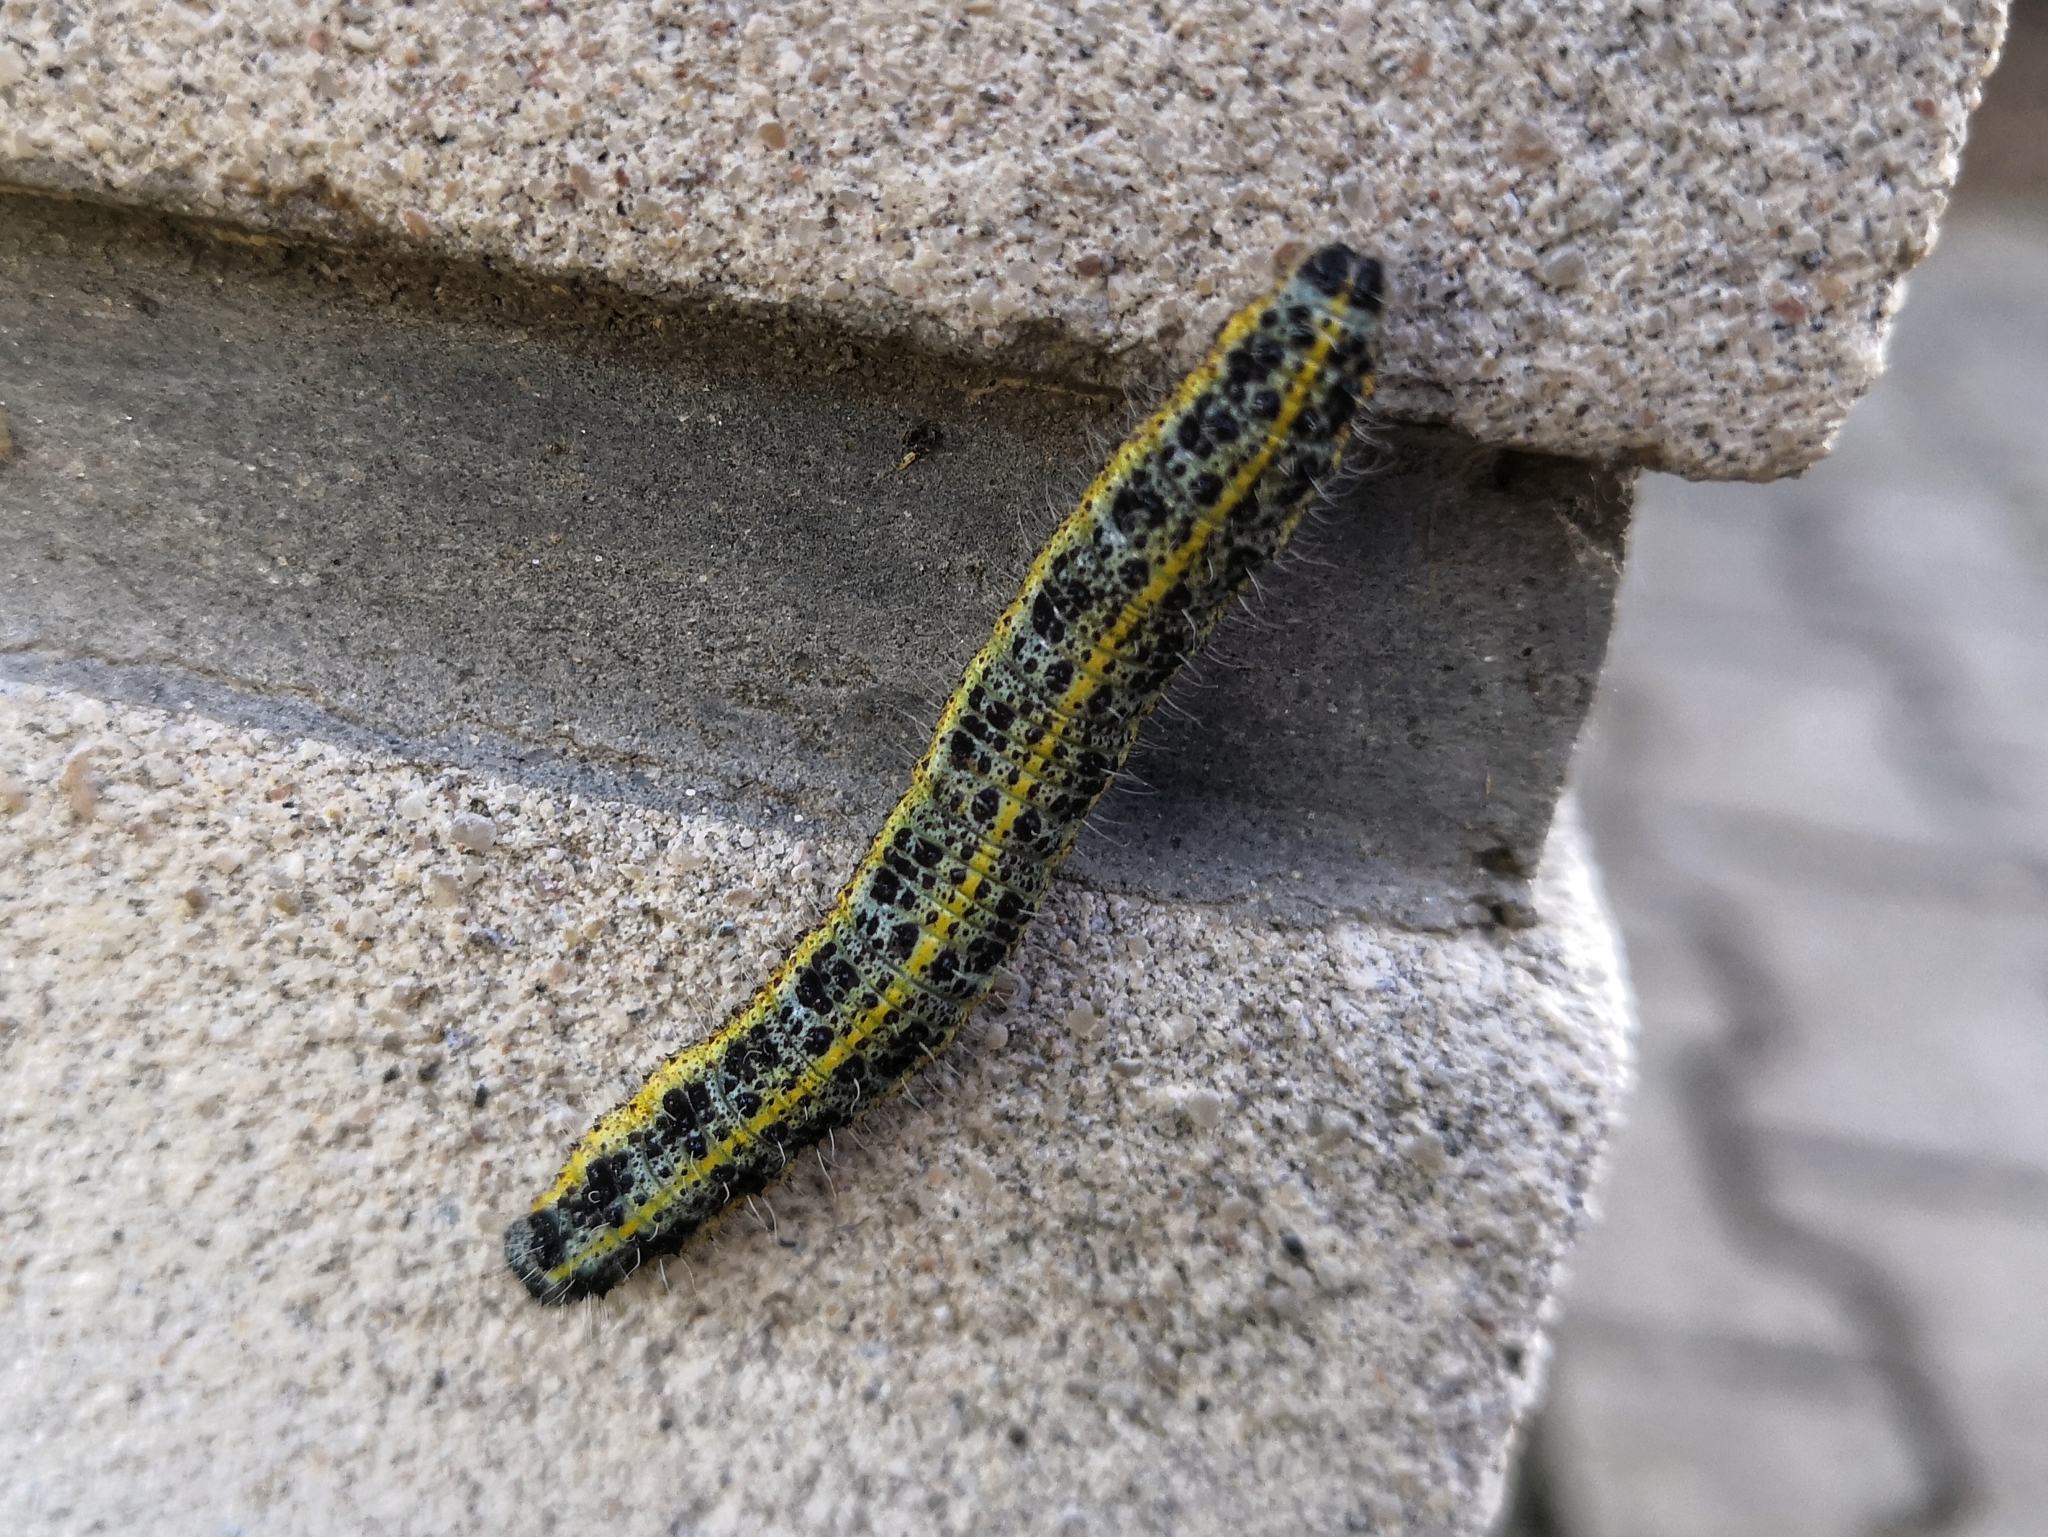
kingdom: Animalia
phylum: Arthropoda
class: Insecta
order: Lepidoptera
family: Pieridae
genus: Pieris
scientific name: Pieris brassicae
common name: Large white
